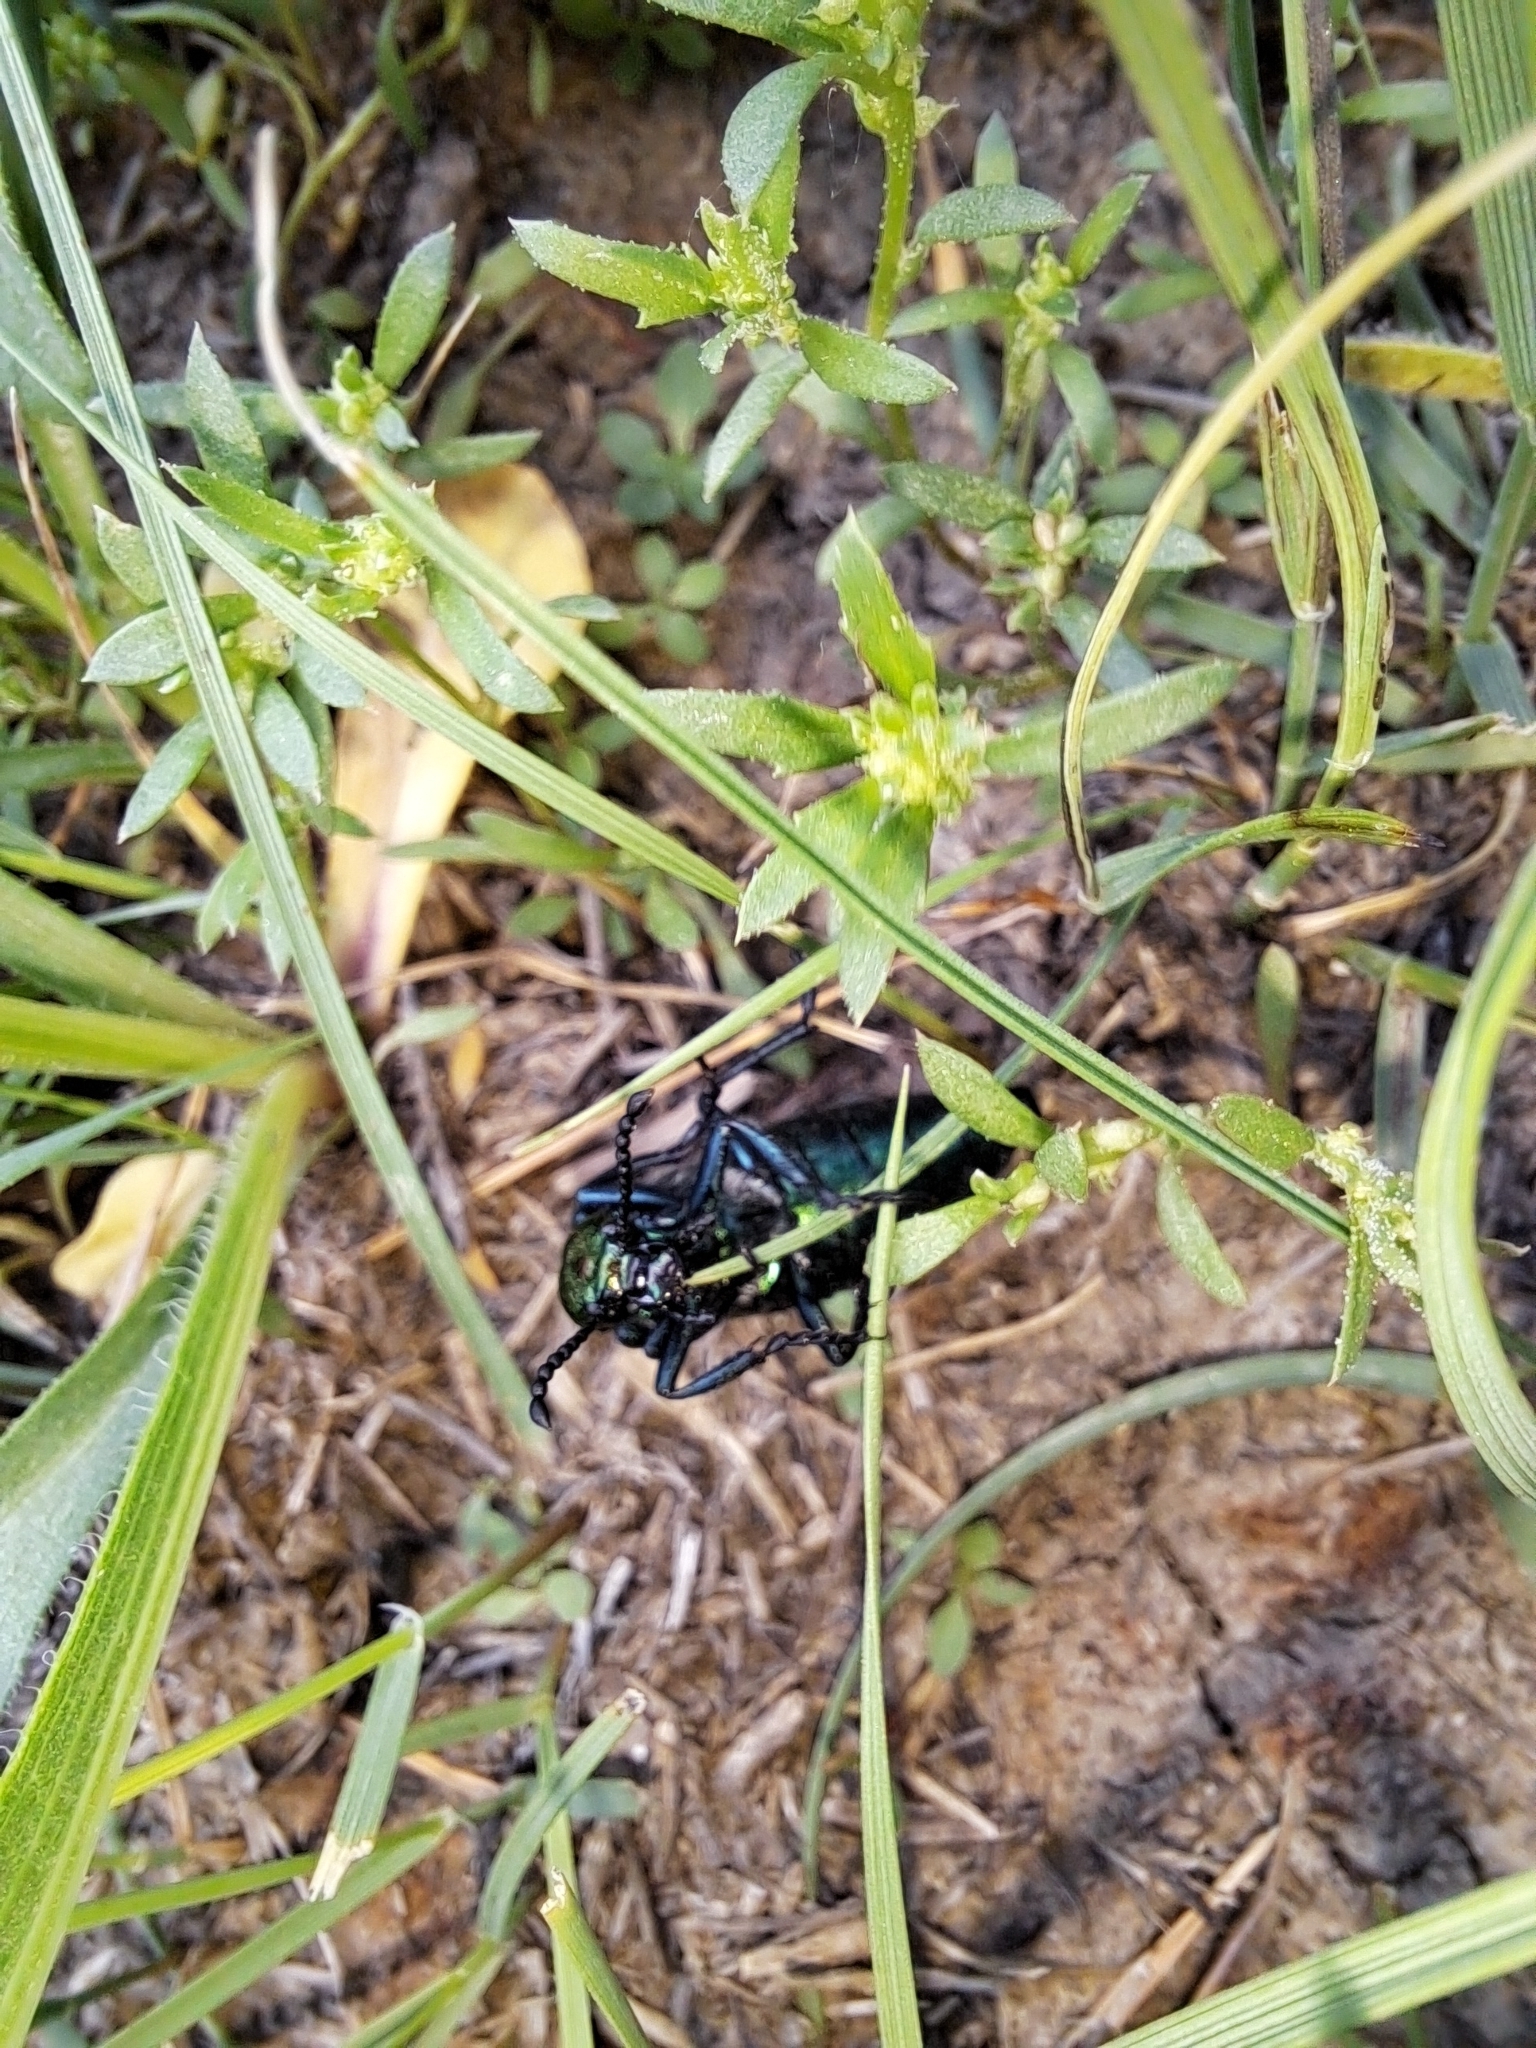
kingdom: Animalia
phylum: Arthropoda
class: Insecta
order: Coleoptera
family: Meloidae
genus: Lytta
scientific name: Lytta nuttallii
